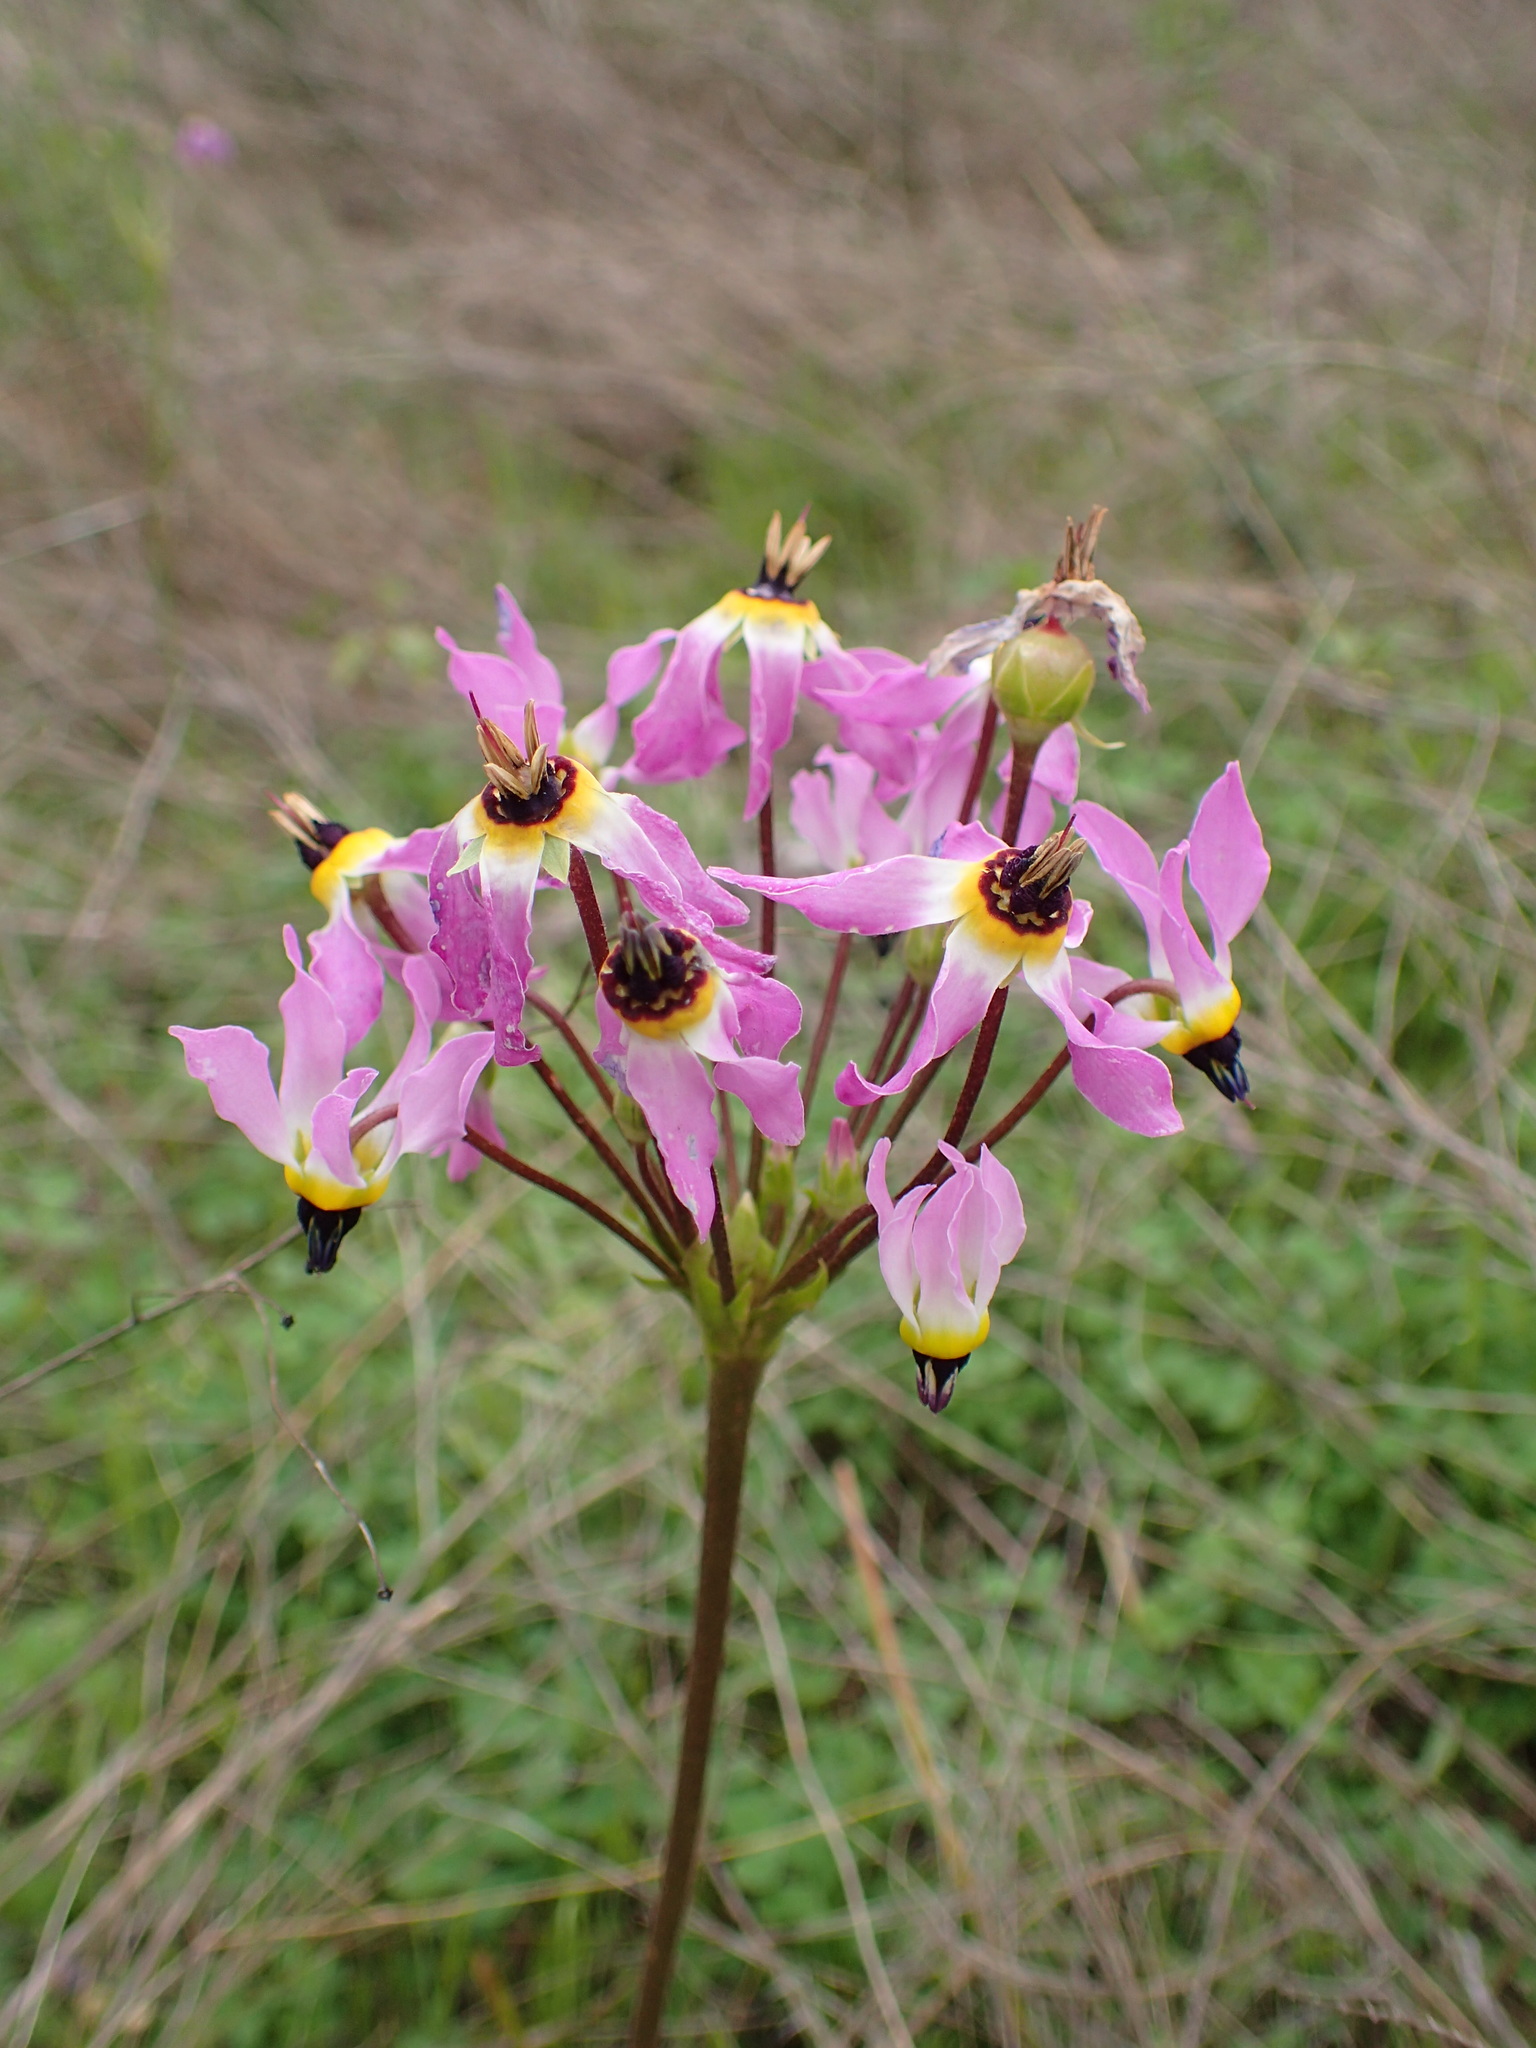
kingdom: Plantae
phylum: Tracheophyta
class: Magnoliopsida
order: Ericales
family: Primulaceae
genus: Dodecatheon
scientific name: Dodecatheon clevelandii
